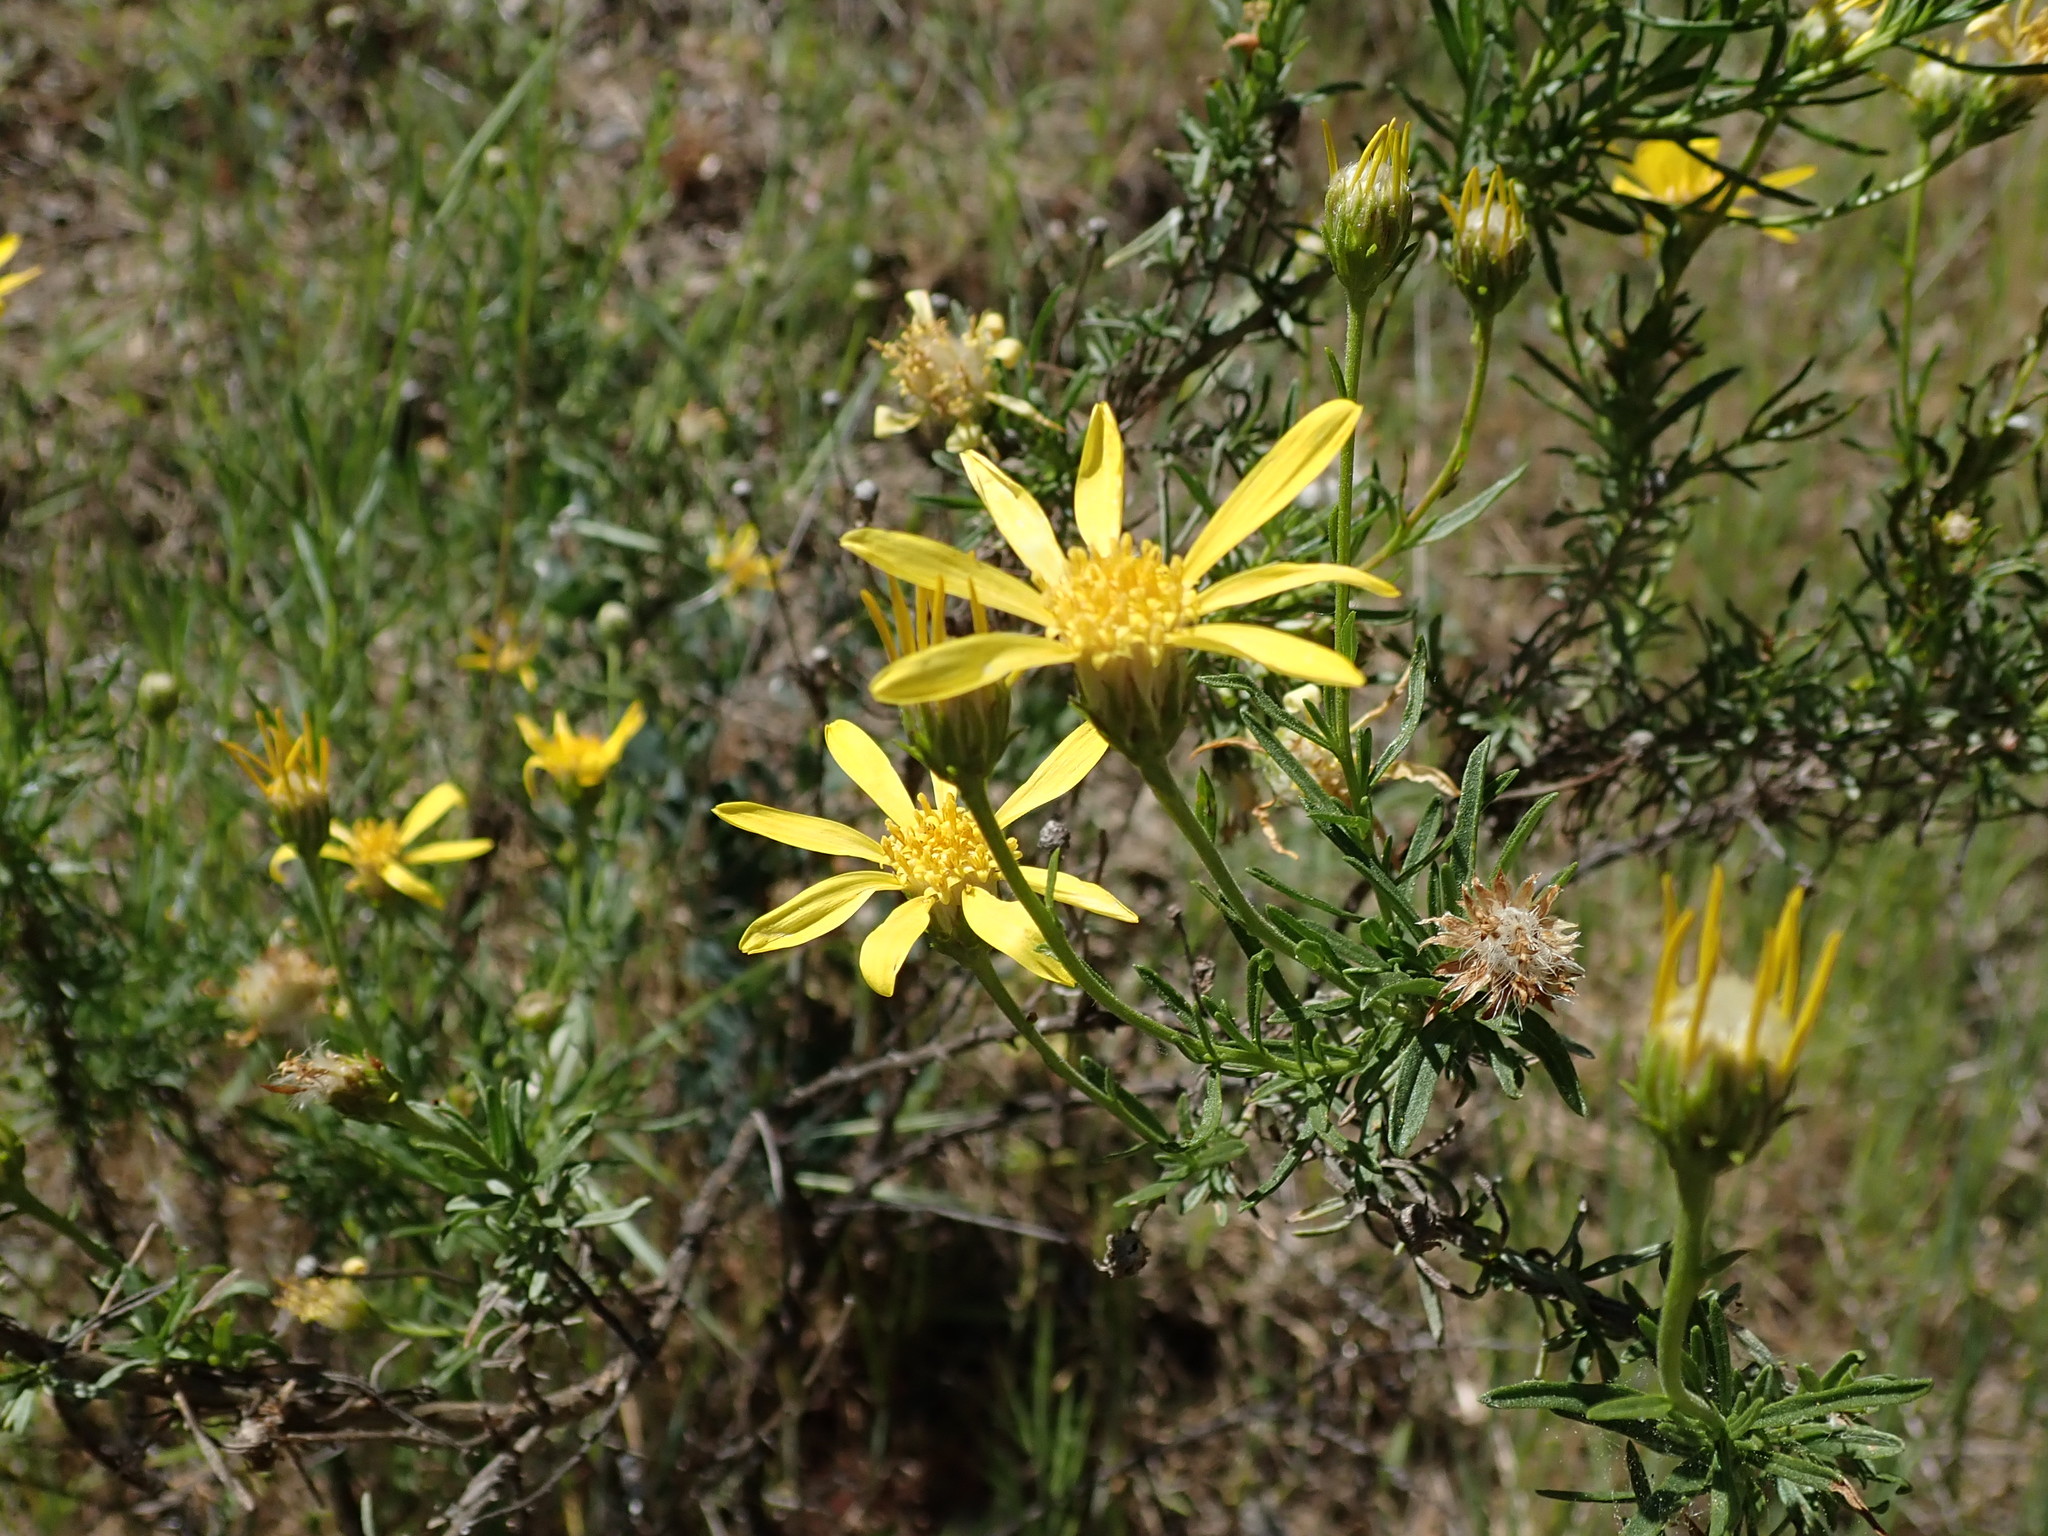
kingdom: Plantae
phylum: Tracheophyta
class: Magnoliopsida
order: Asterales
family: Asteraceae
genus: Ericameria
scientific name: Ericameria linearifolia
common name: Interior goldenbush
